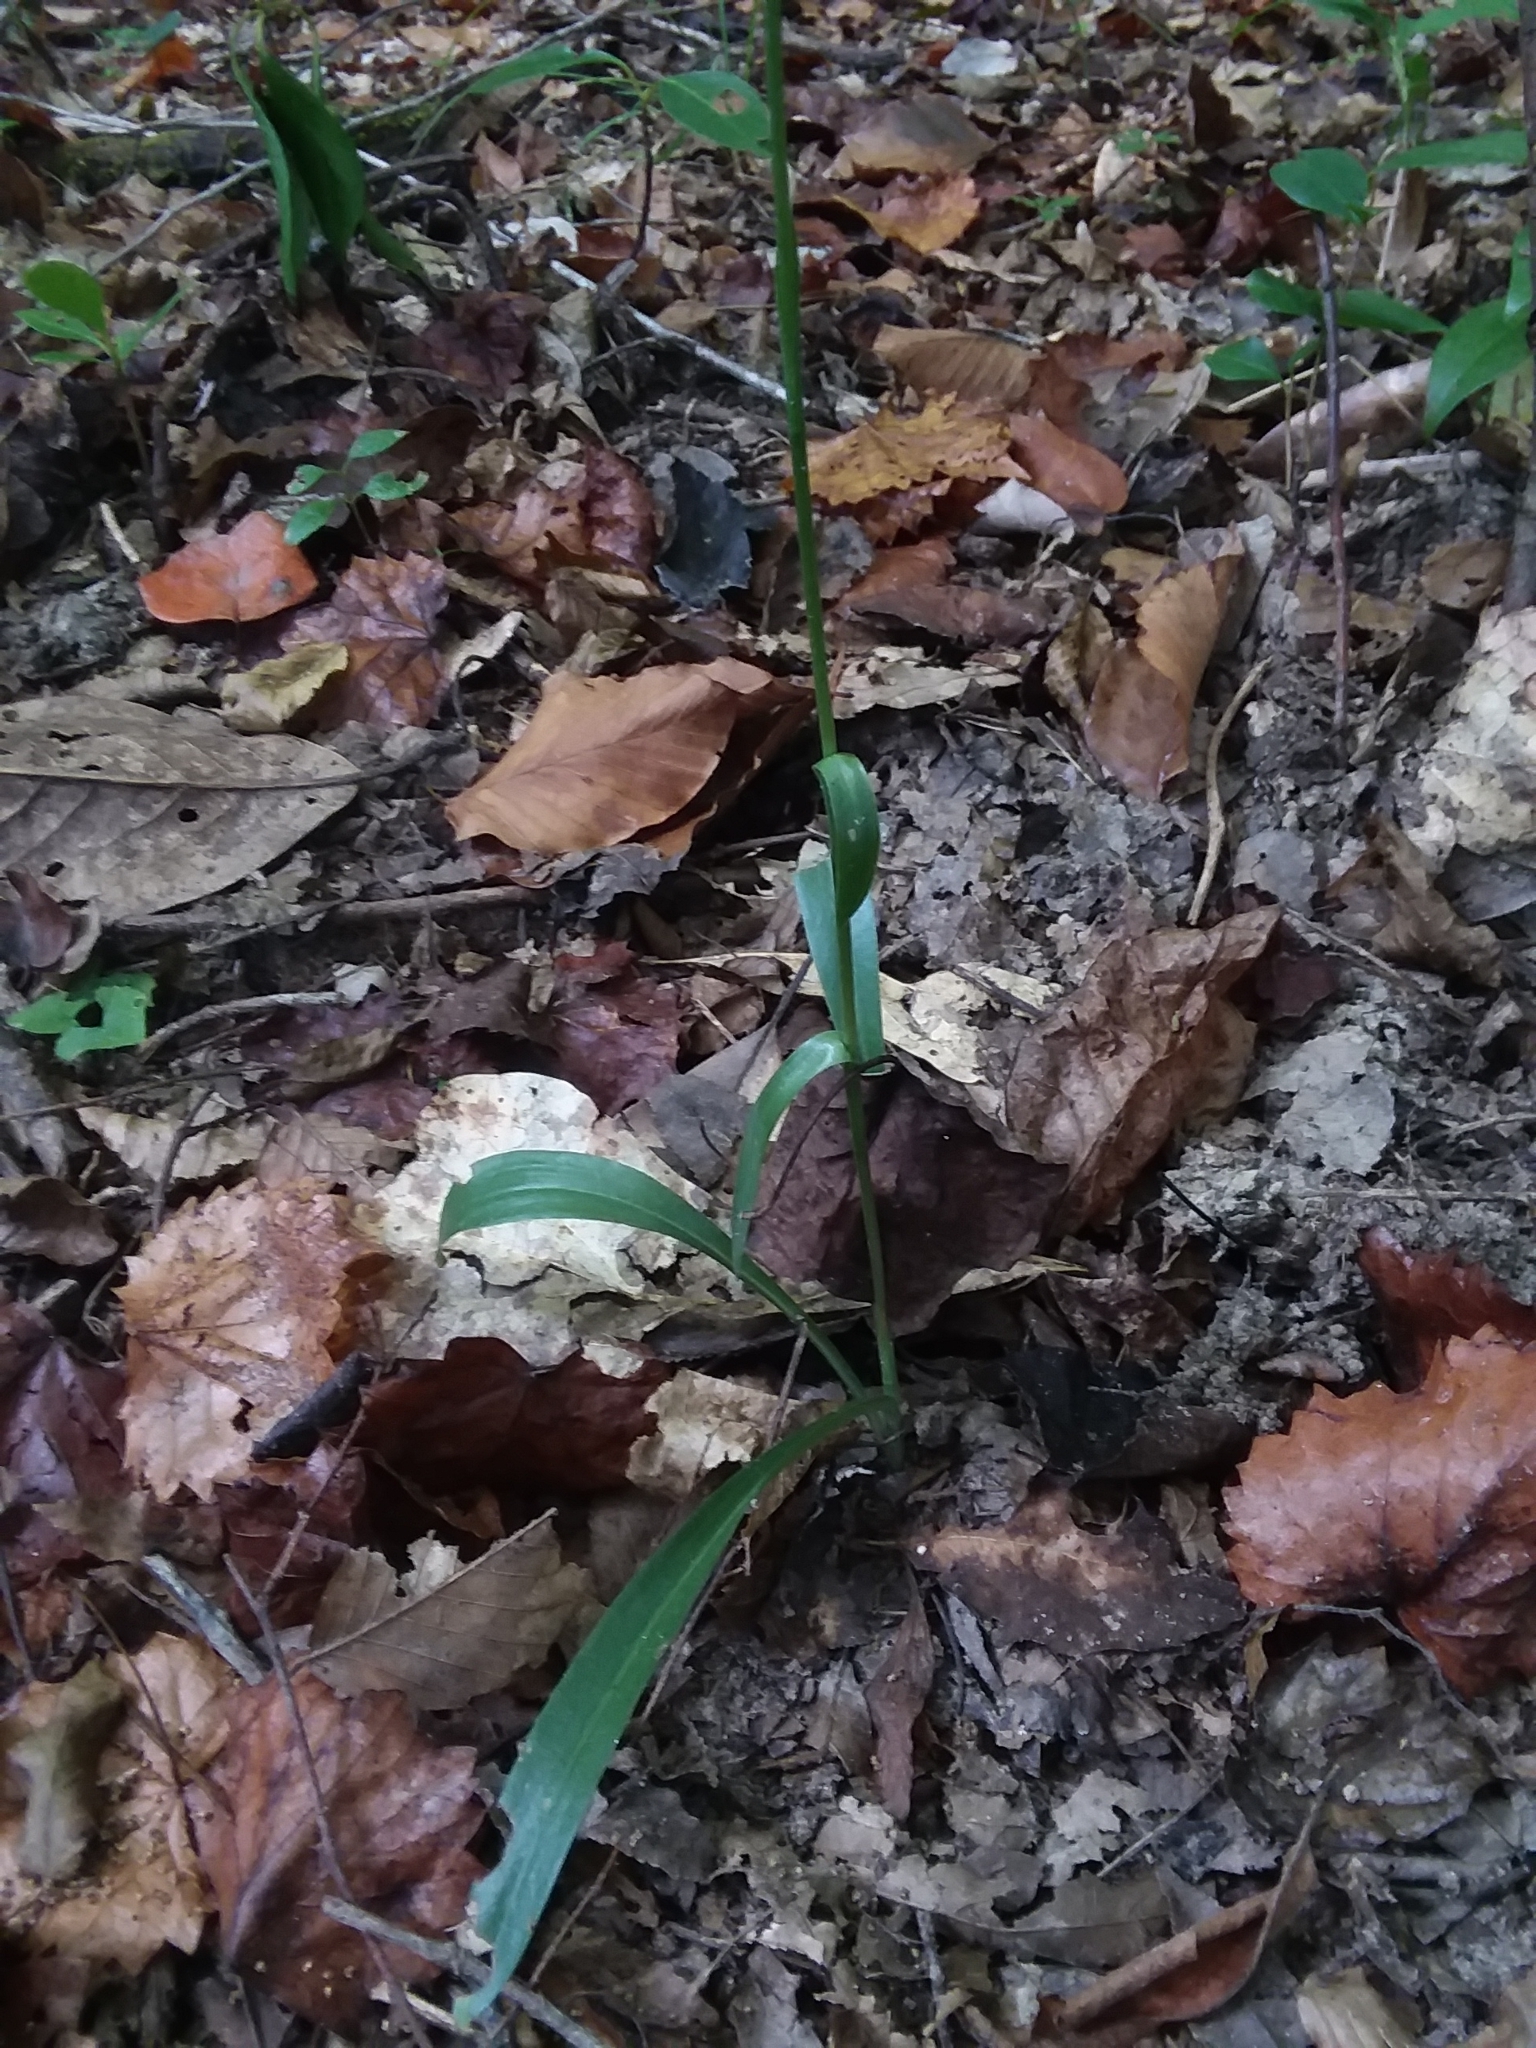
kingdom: Plantae
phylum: Tracheophyta
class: Liliopsida
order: Asparagales
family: Orchidaceae
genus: Spiranthes
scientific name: Spiranthes ovalis
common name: October ladies'-tresses
